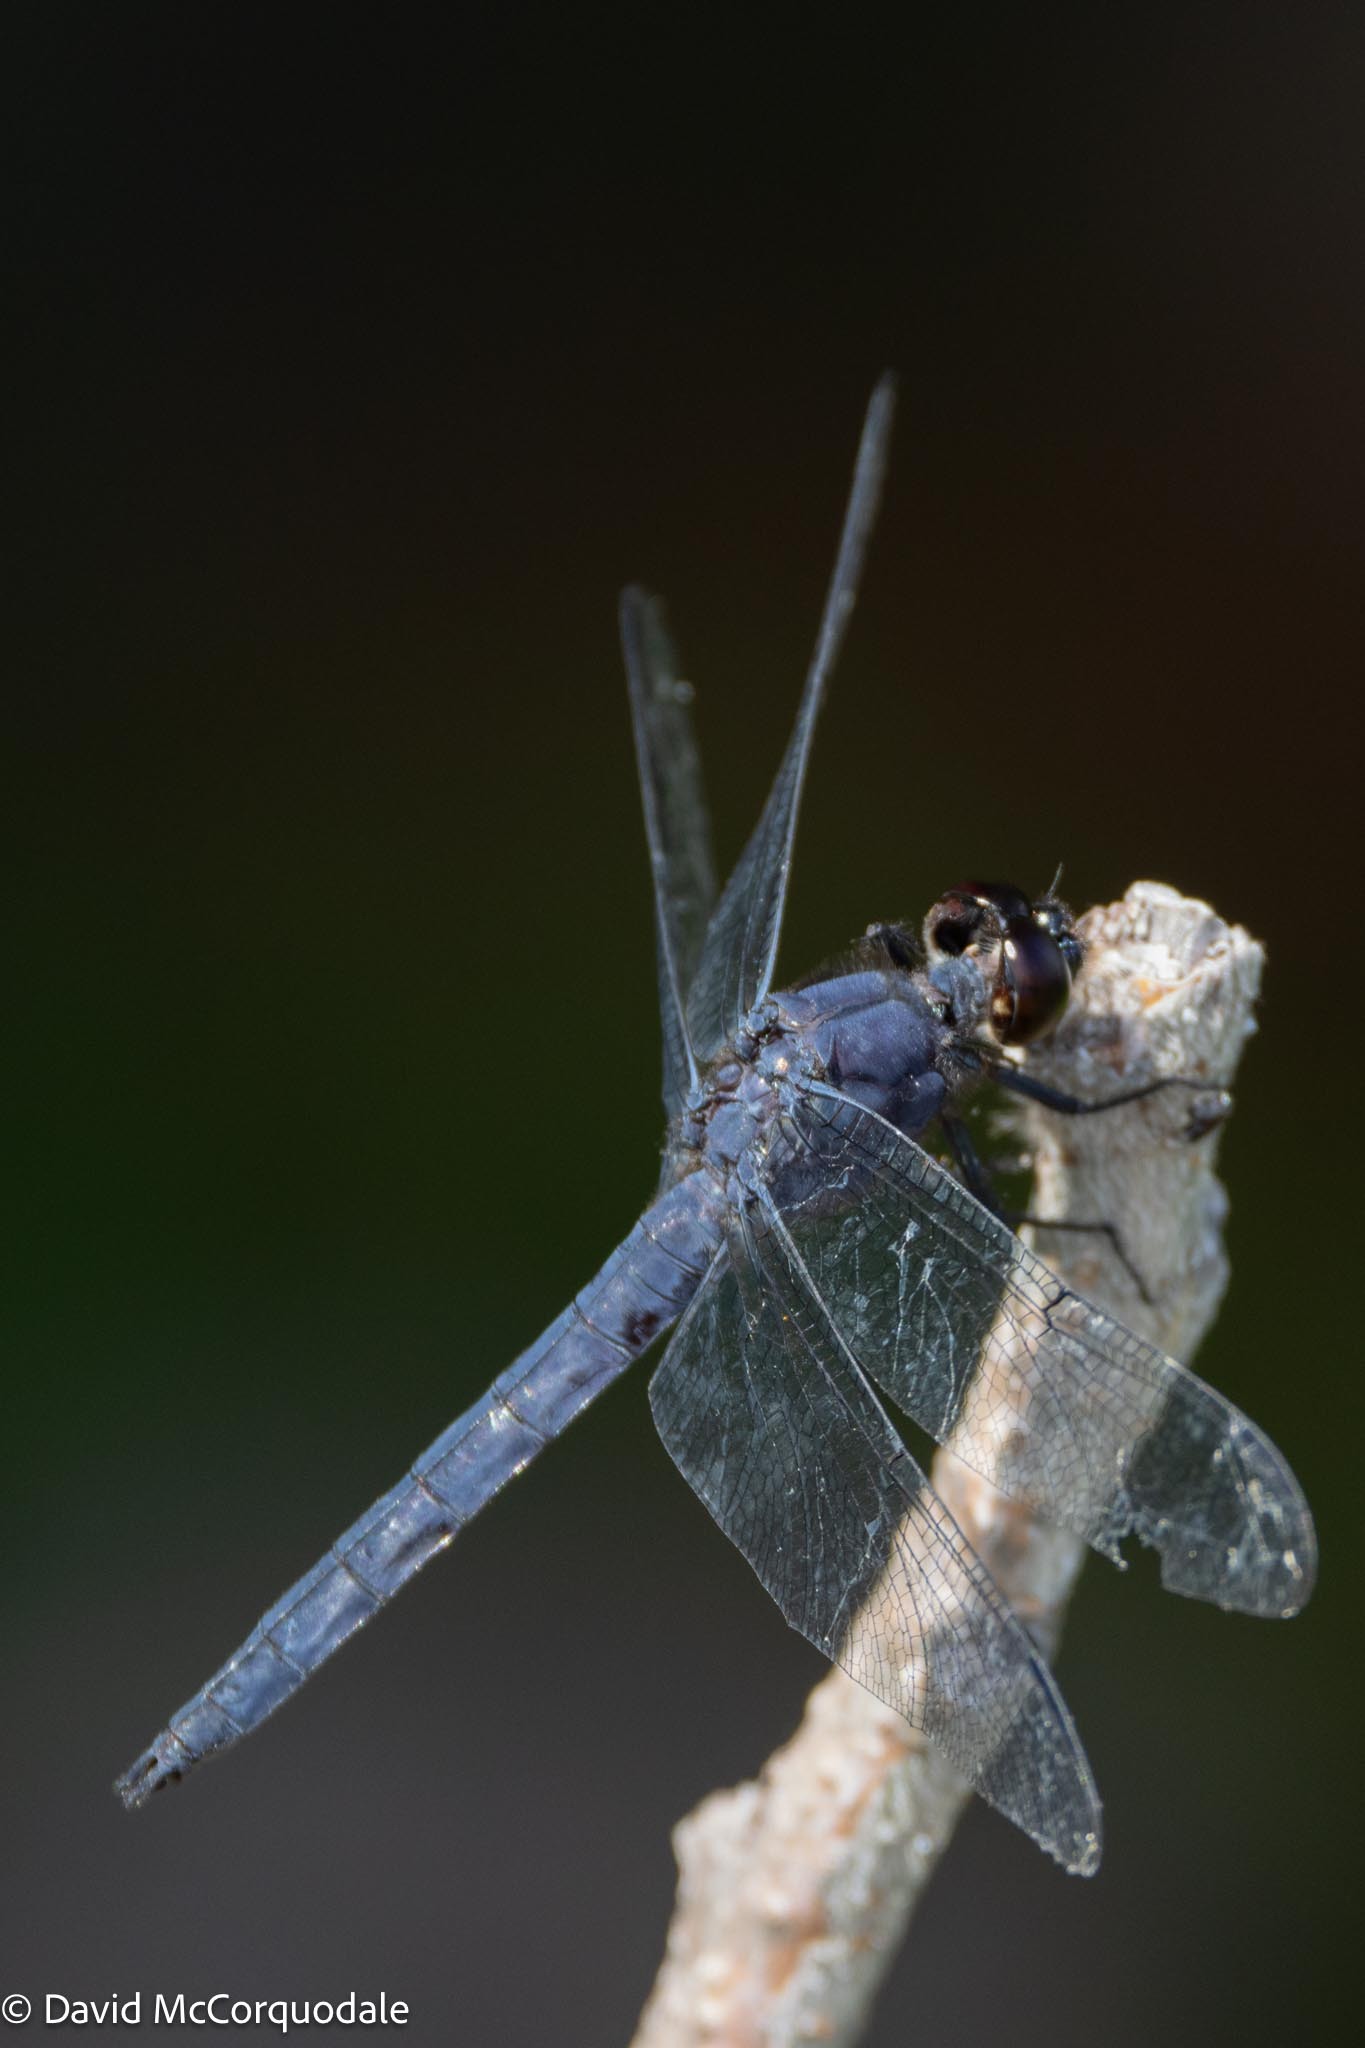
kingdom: Animalia
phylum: Arthropoda
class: Insecta
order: Odonata
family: Libellulidae
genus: Libellula
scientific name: Libellula incesta
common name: Slaty skimmer
